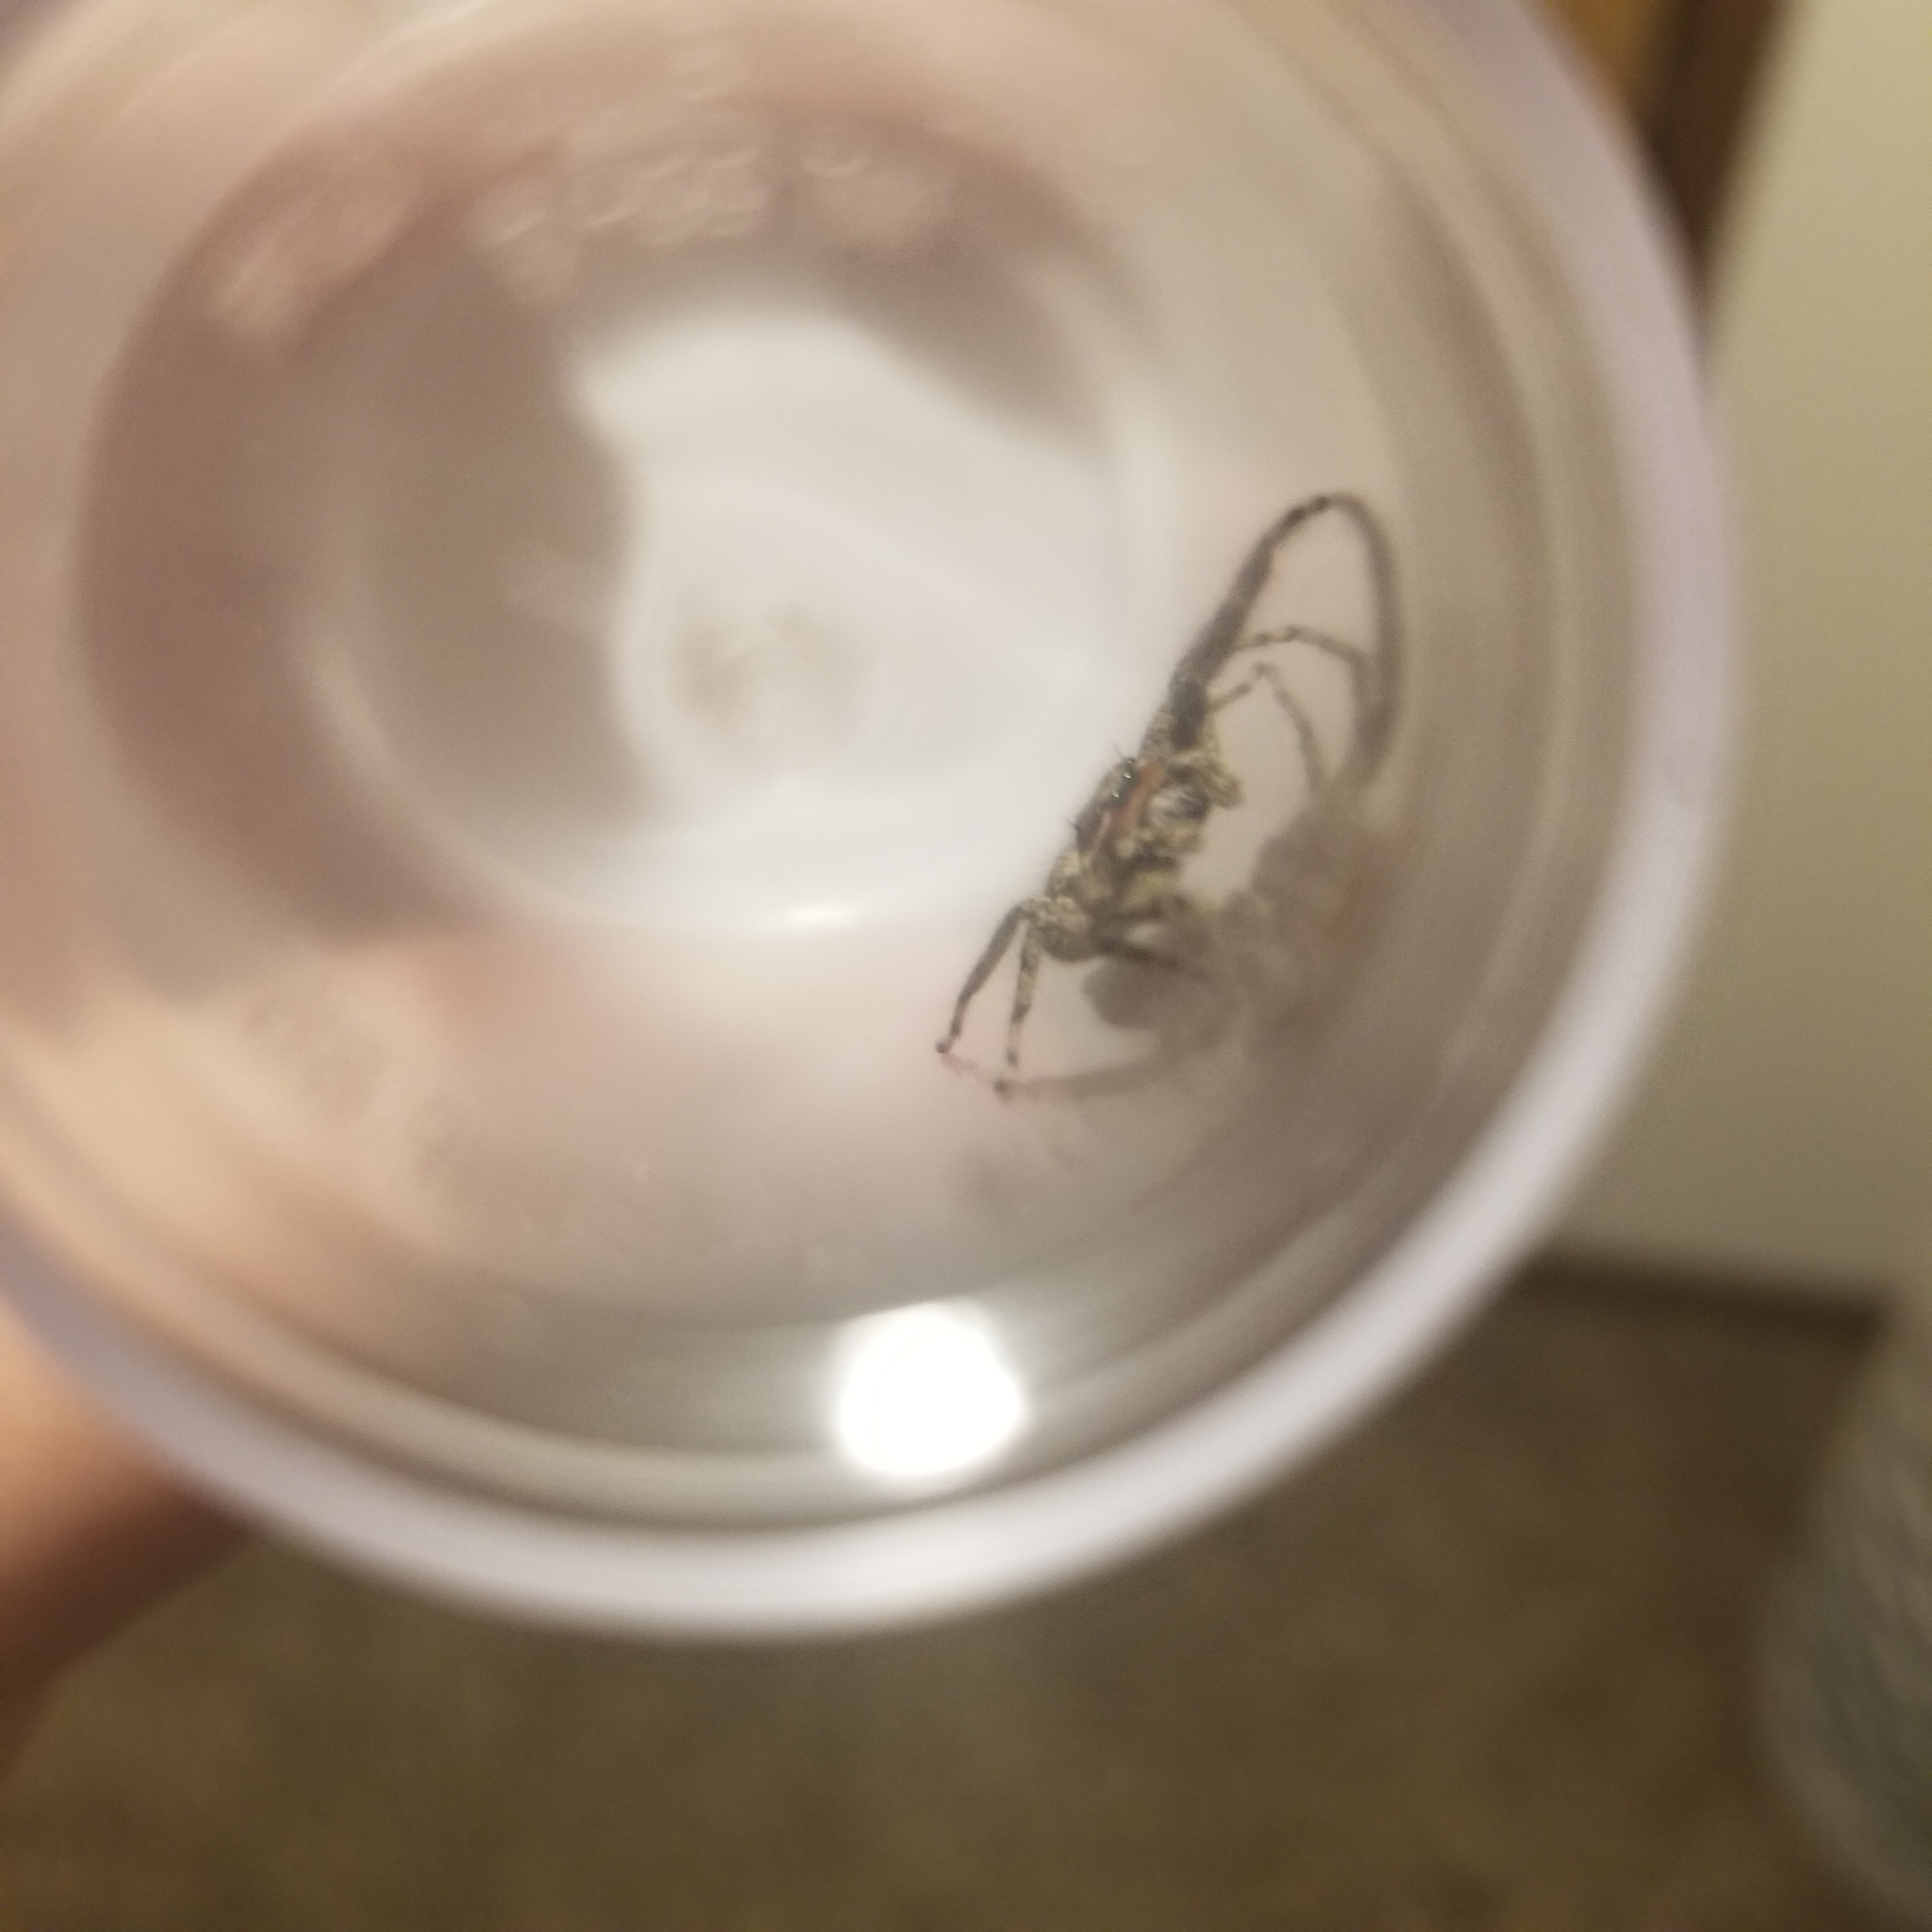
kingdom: Animalia
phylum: Arthropoda
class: Arachnida
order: Araneae
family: Salticidae
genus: Platycryptus
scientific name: Platycryptus undatus
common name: Tan jumping spider
